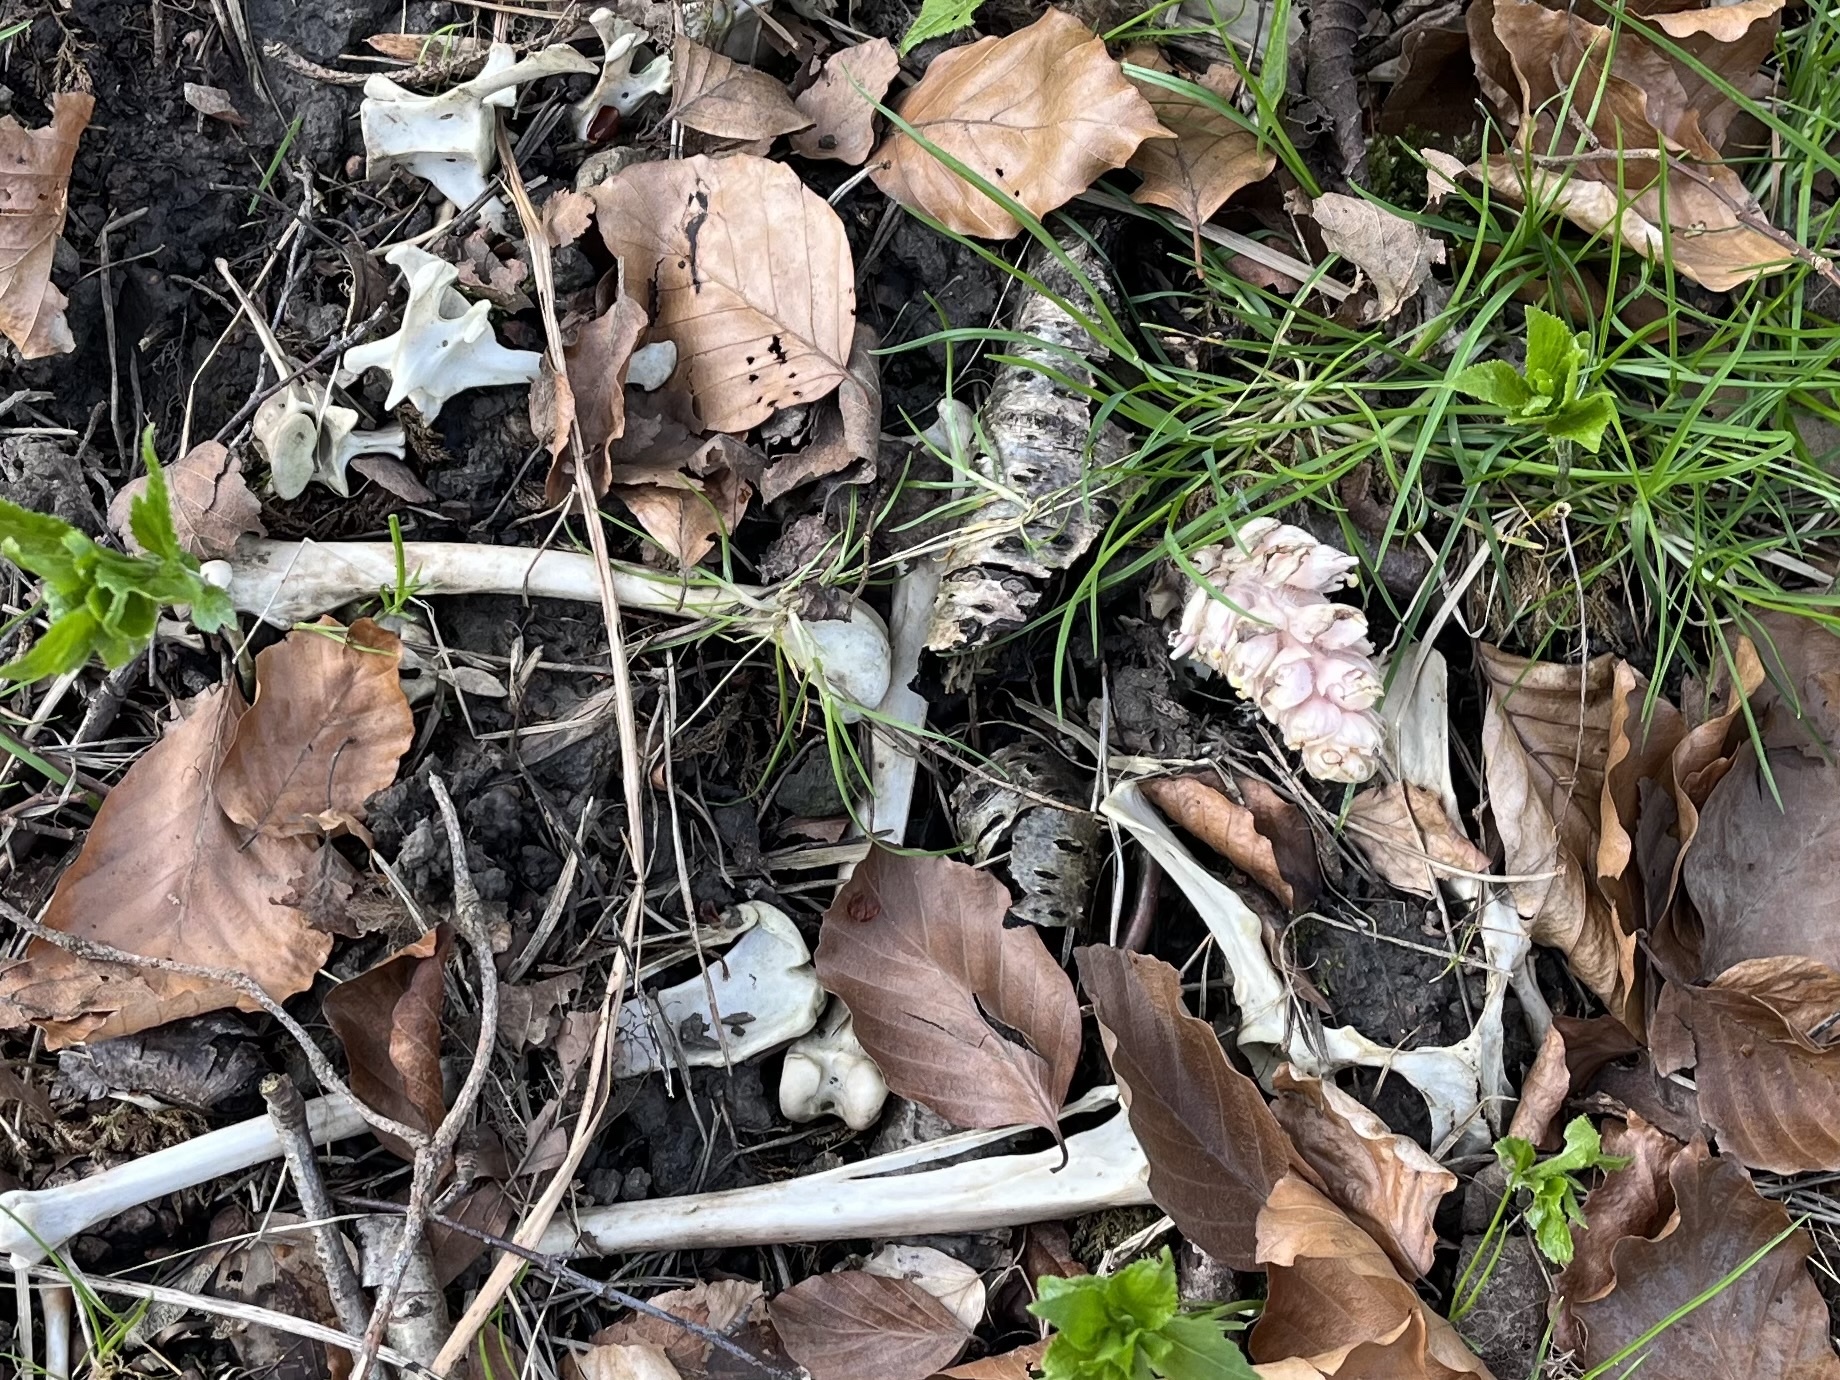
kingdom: Plantae
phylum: Tracheophyta
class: Magnoliopsida
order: Lamiales
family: Orobanchaceae
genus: Lathraea
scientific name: Lathraea squamaria
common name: Toothwort
